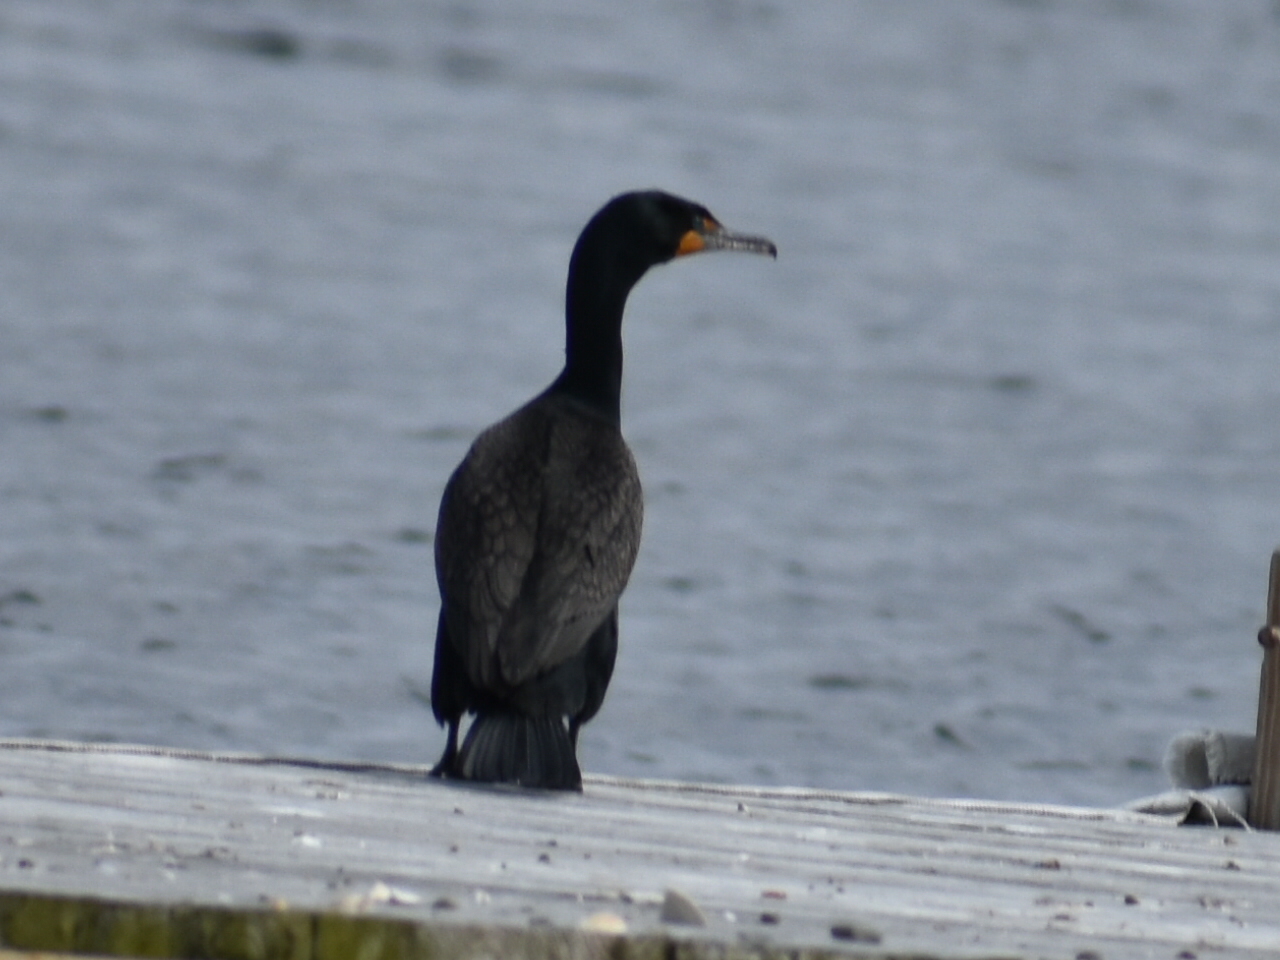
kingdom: Animalia
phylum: Chordata
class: Aves
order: Suliformes
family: Phalacrocoracidae
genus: Phalacrocorax
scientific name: Phalacrocorax auritus
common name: Double-crested cormorant
